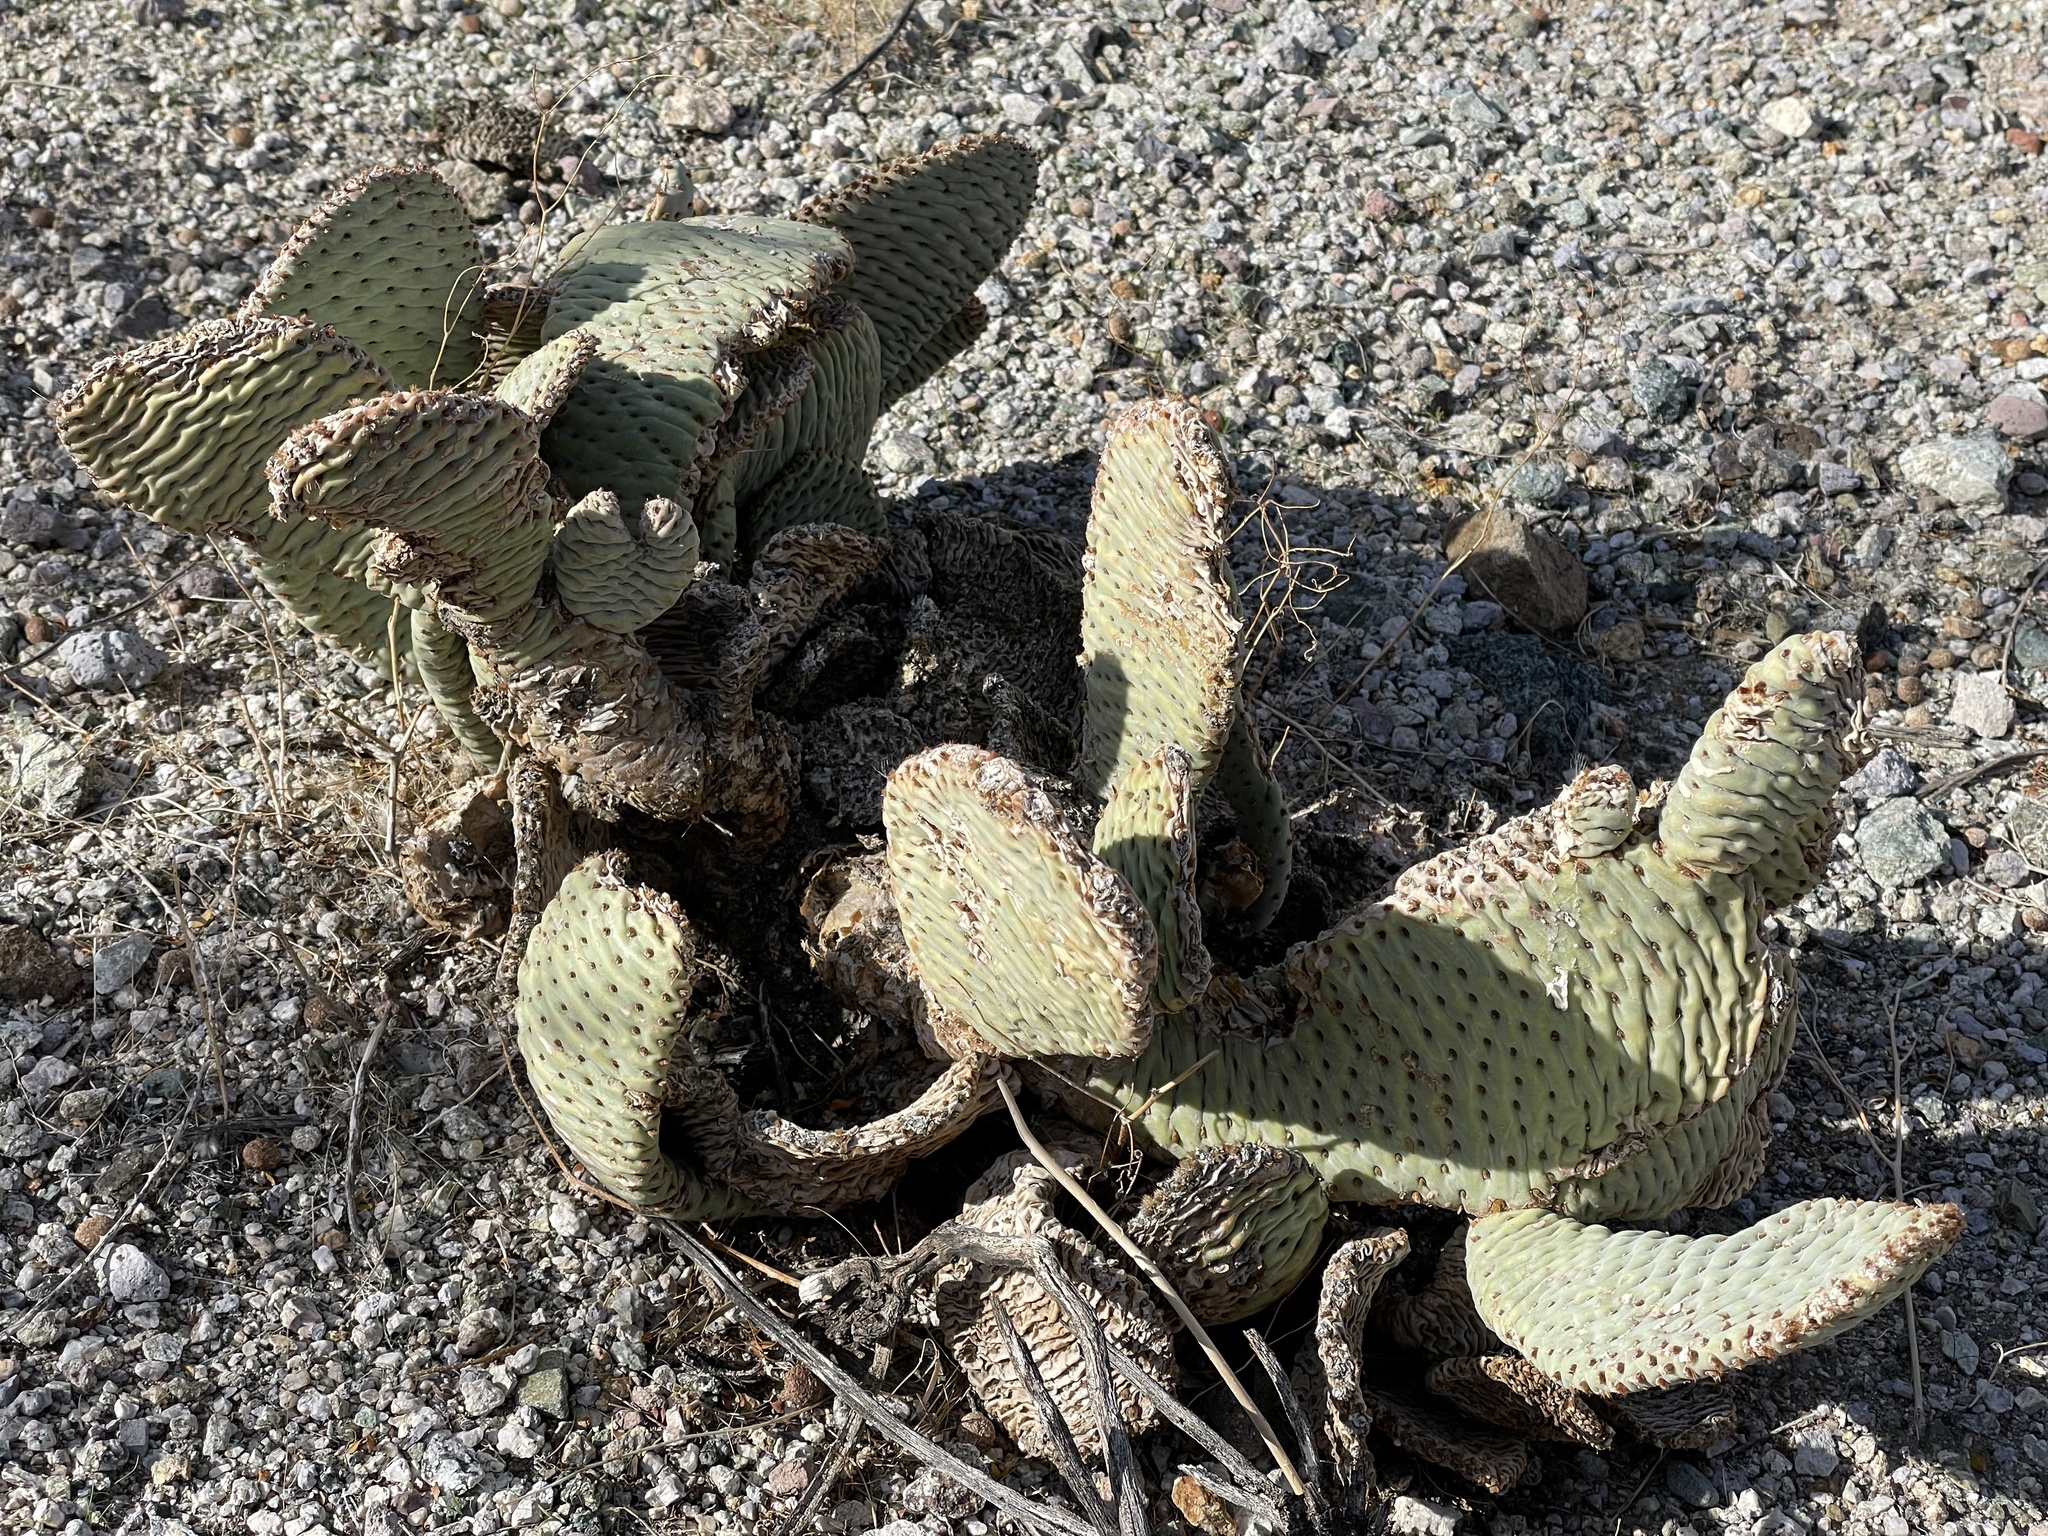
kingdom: Plantae
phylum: Tracheophyta
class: Magnoliopsida
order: Caryophyllales
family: Cactaceae
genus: Opuntia
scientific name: Opuntia basilaris
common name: Beavertail prickly-pear
